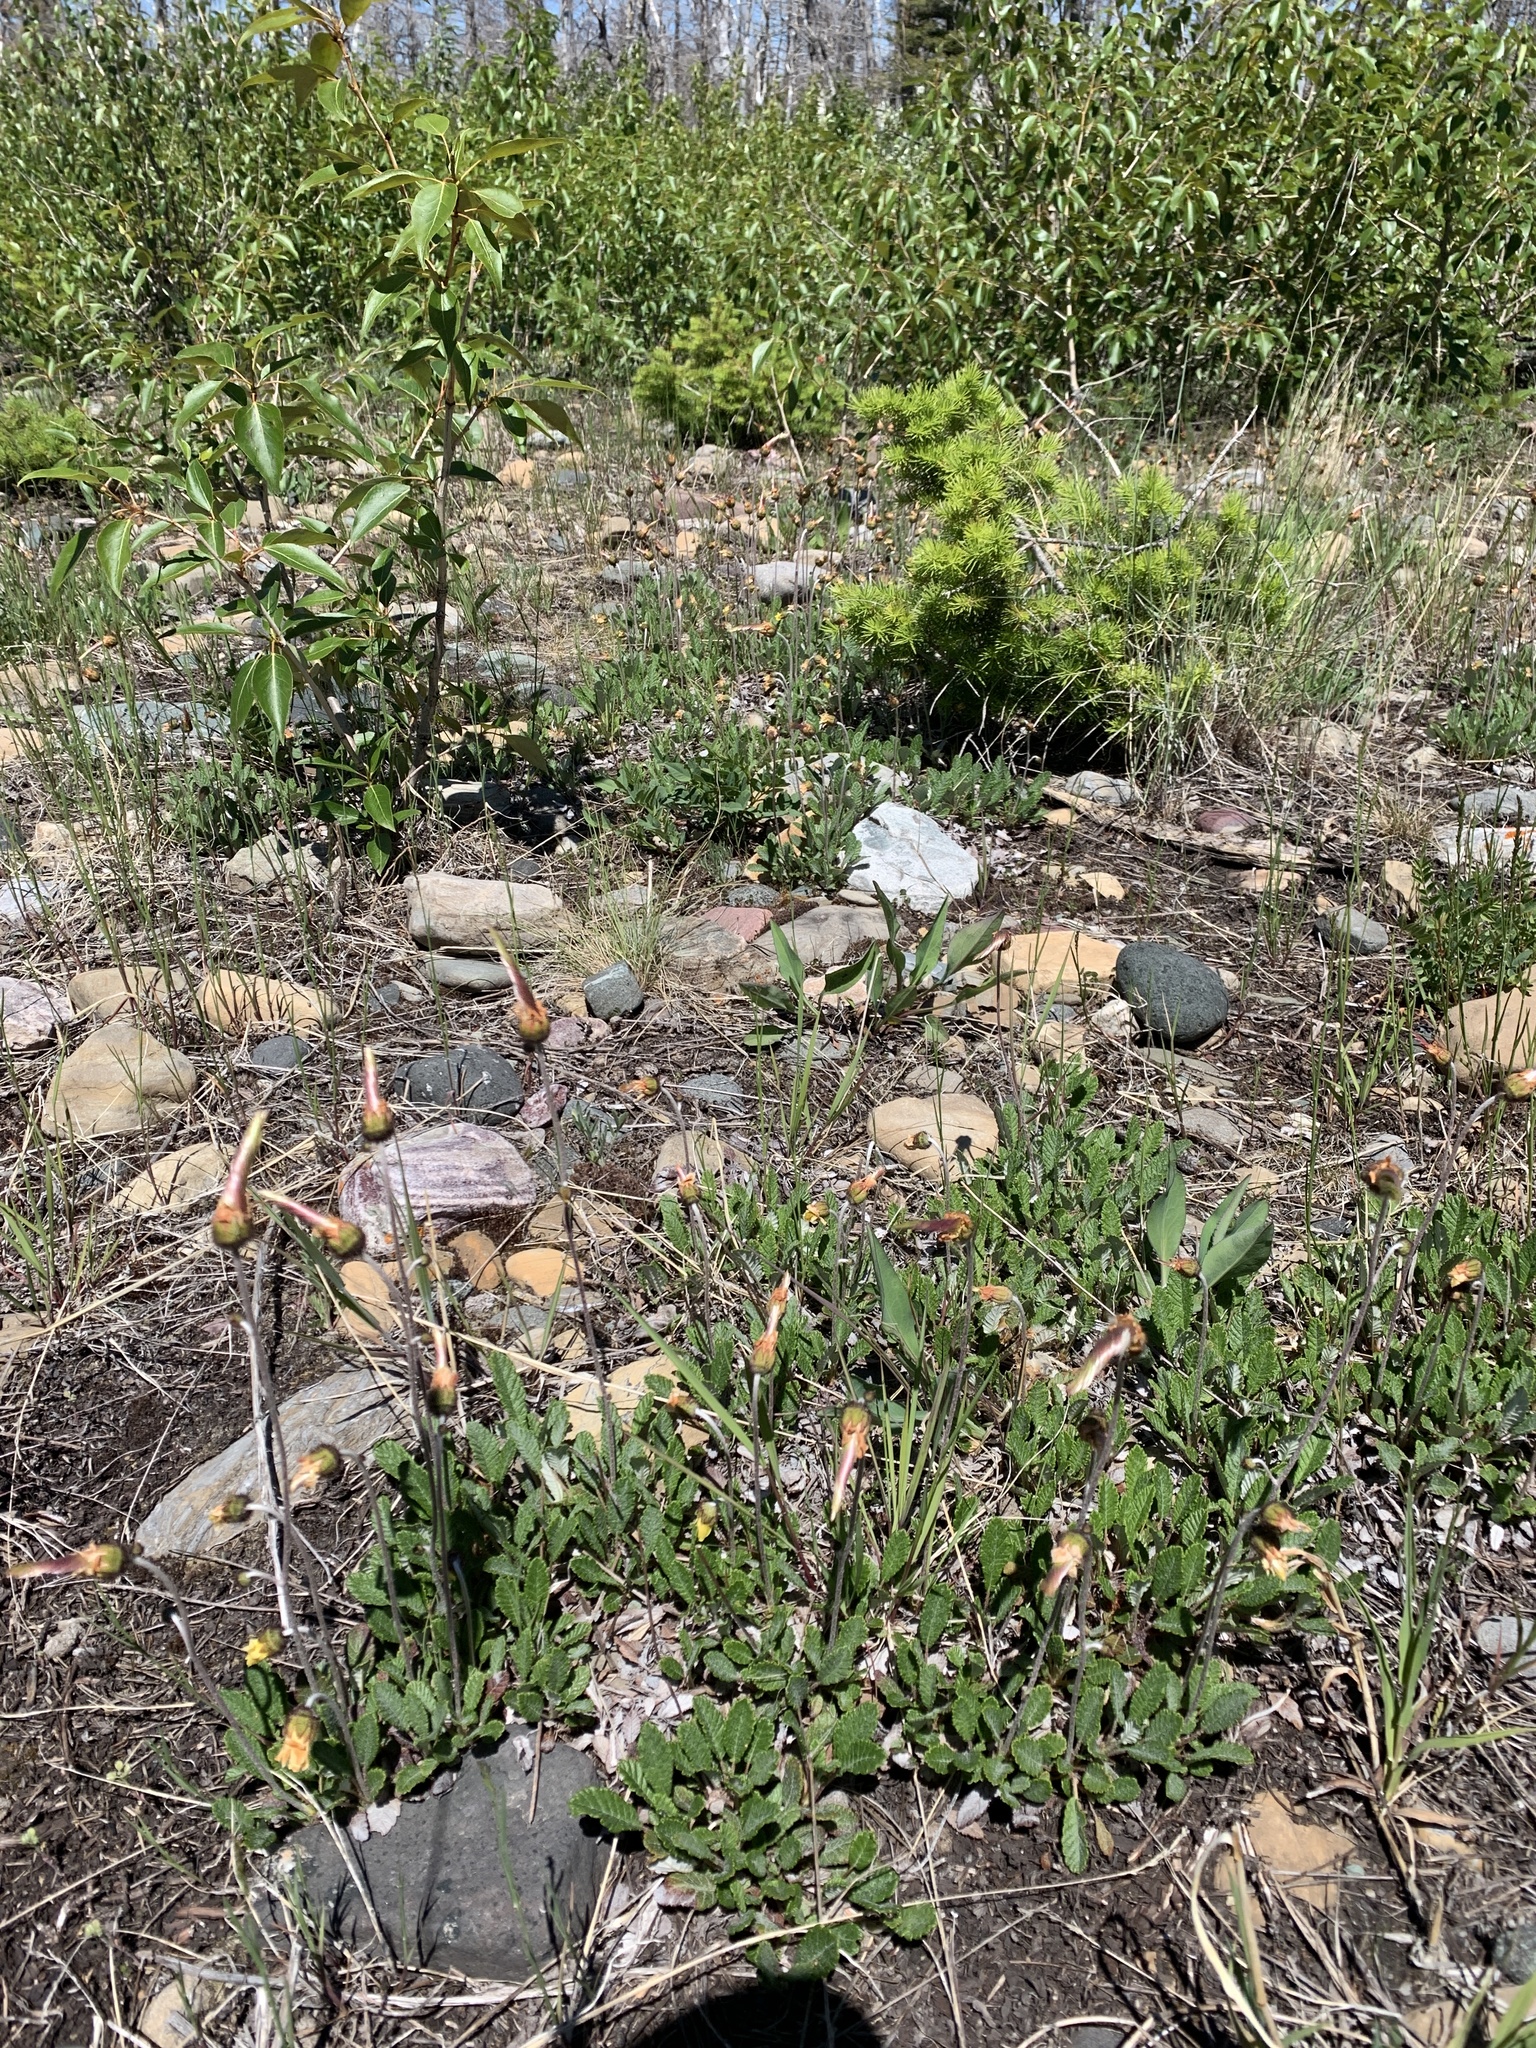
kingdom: Plantae
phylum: Tracheophyta
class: Magnoliopsida
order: Rosales
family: Rosaceae
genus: Dryas
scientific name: Dryas drummondii
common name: Drummond's dryad
